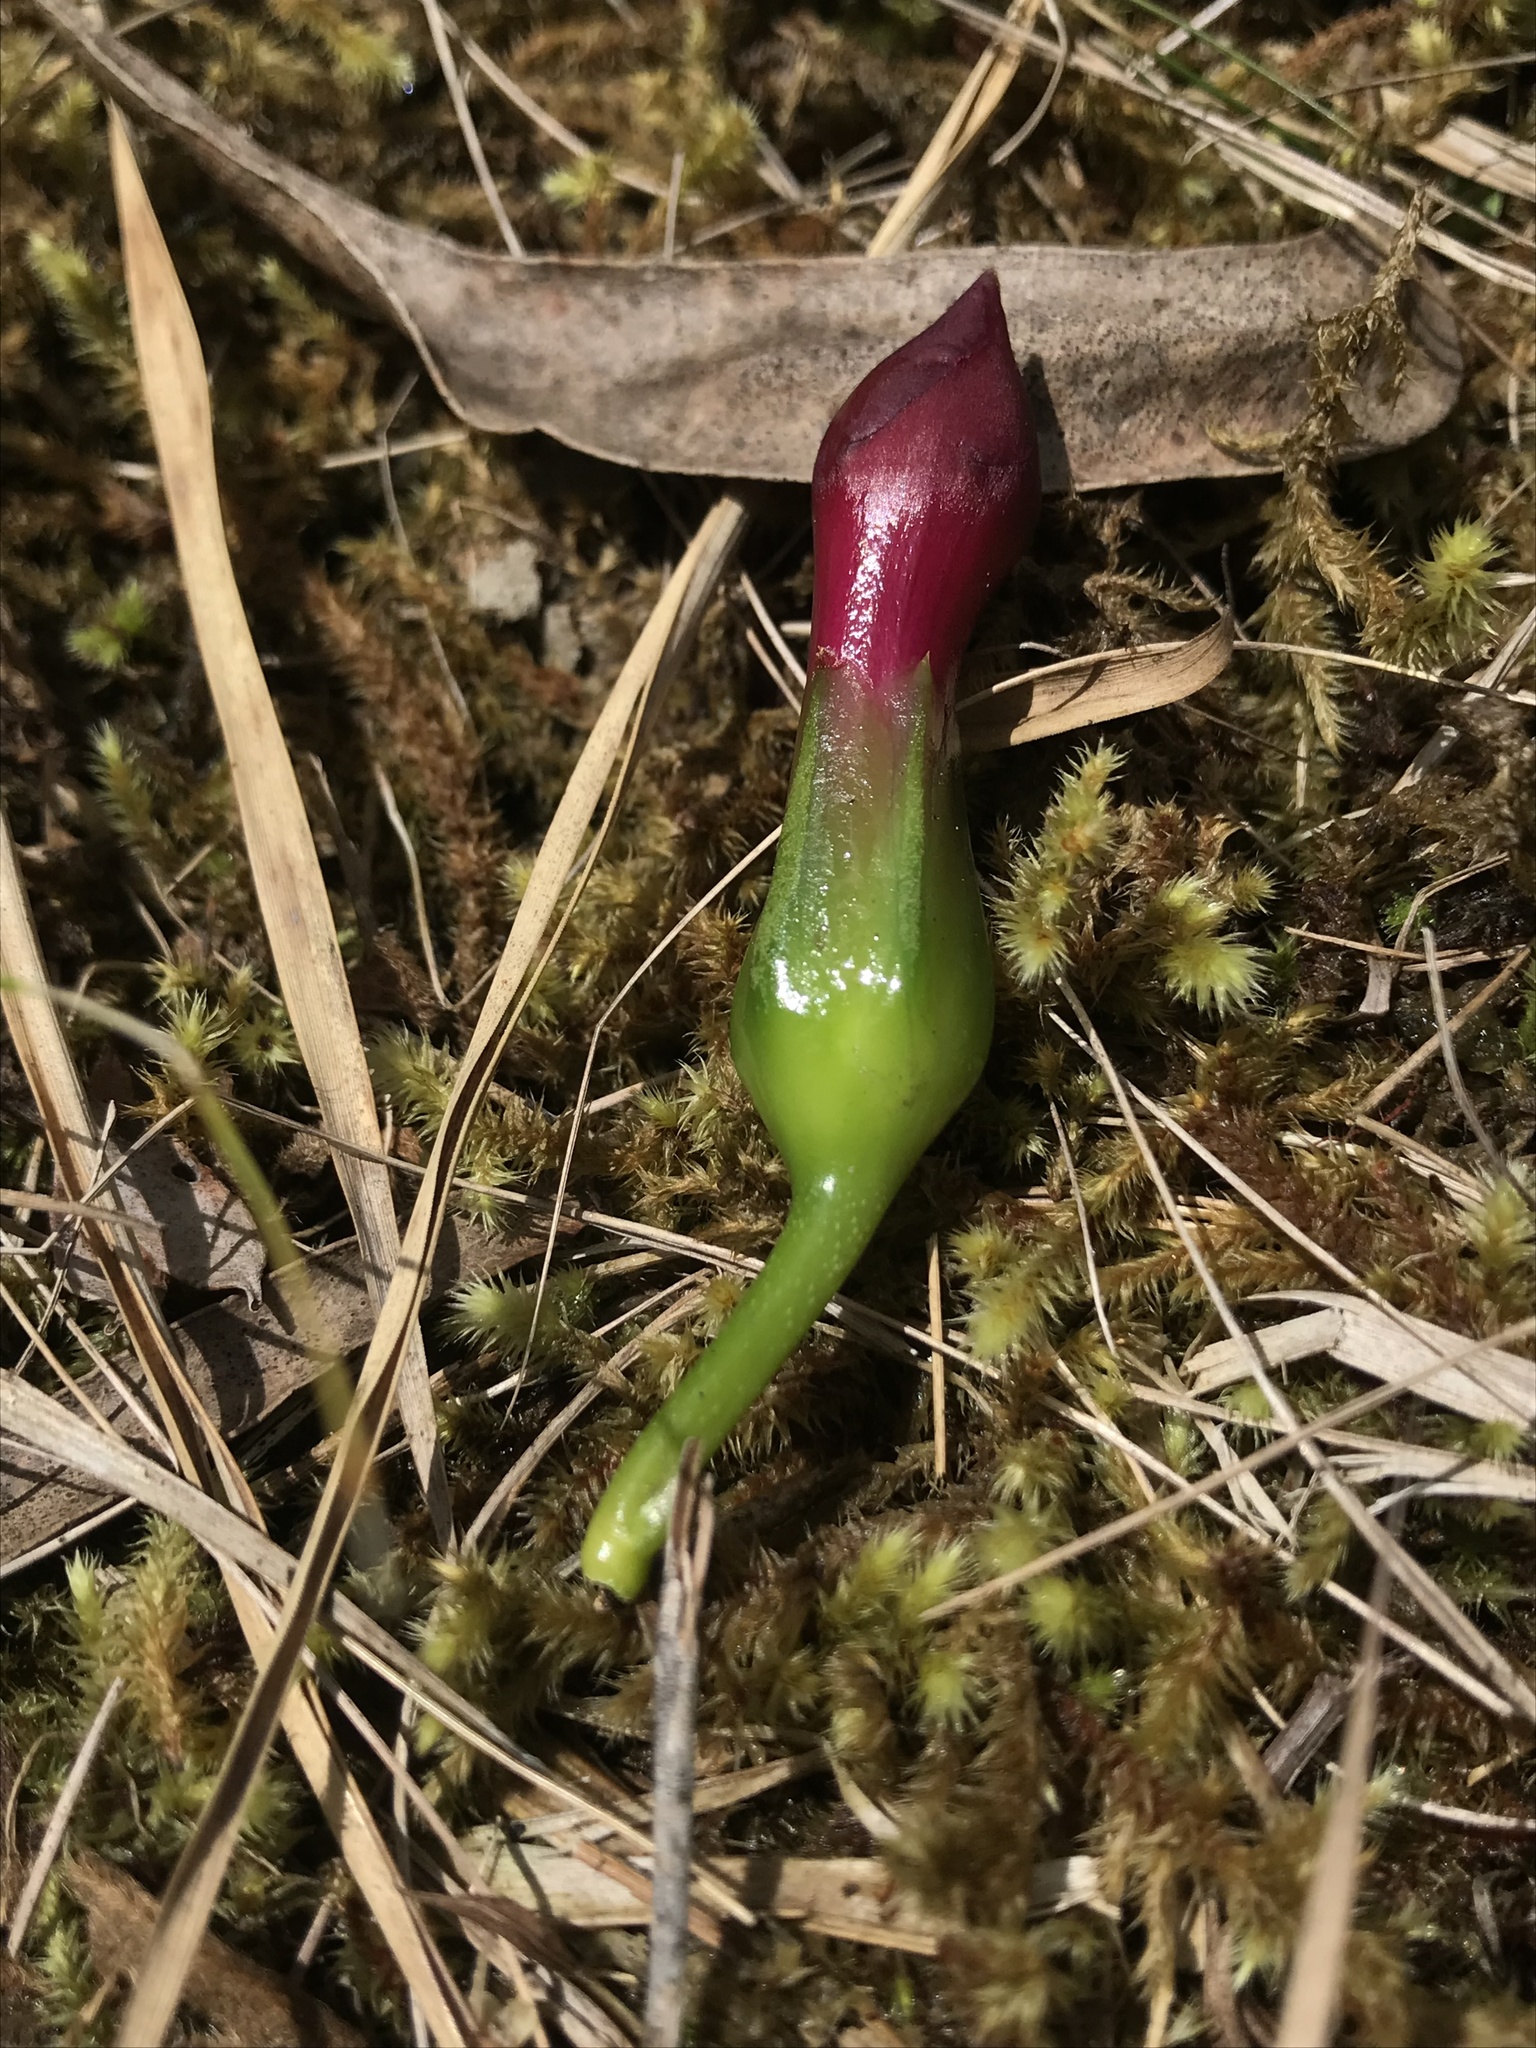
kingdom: Plantae
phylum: Tracheophyta
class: Magnoliopsida
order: Gentianales
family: Gentianaceae
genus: Symbolanthus
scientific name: Symbolanthus anomalus
